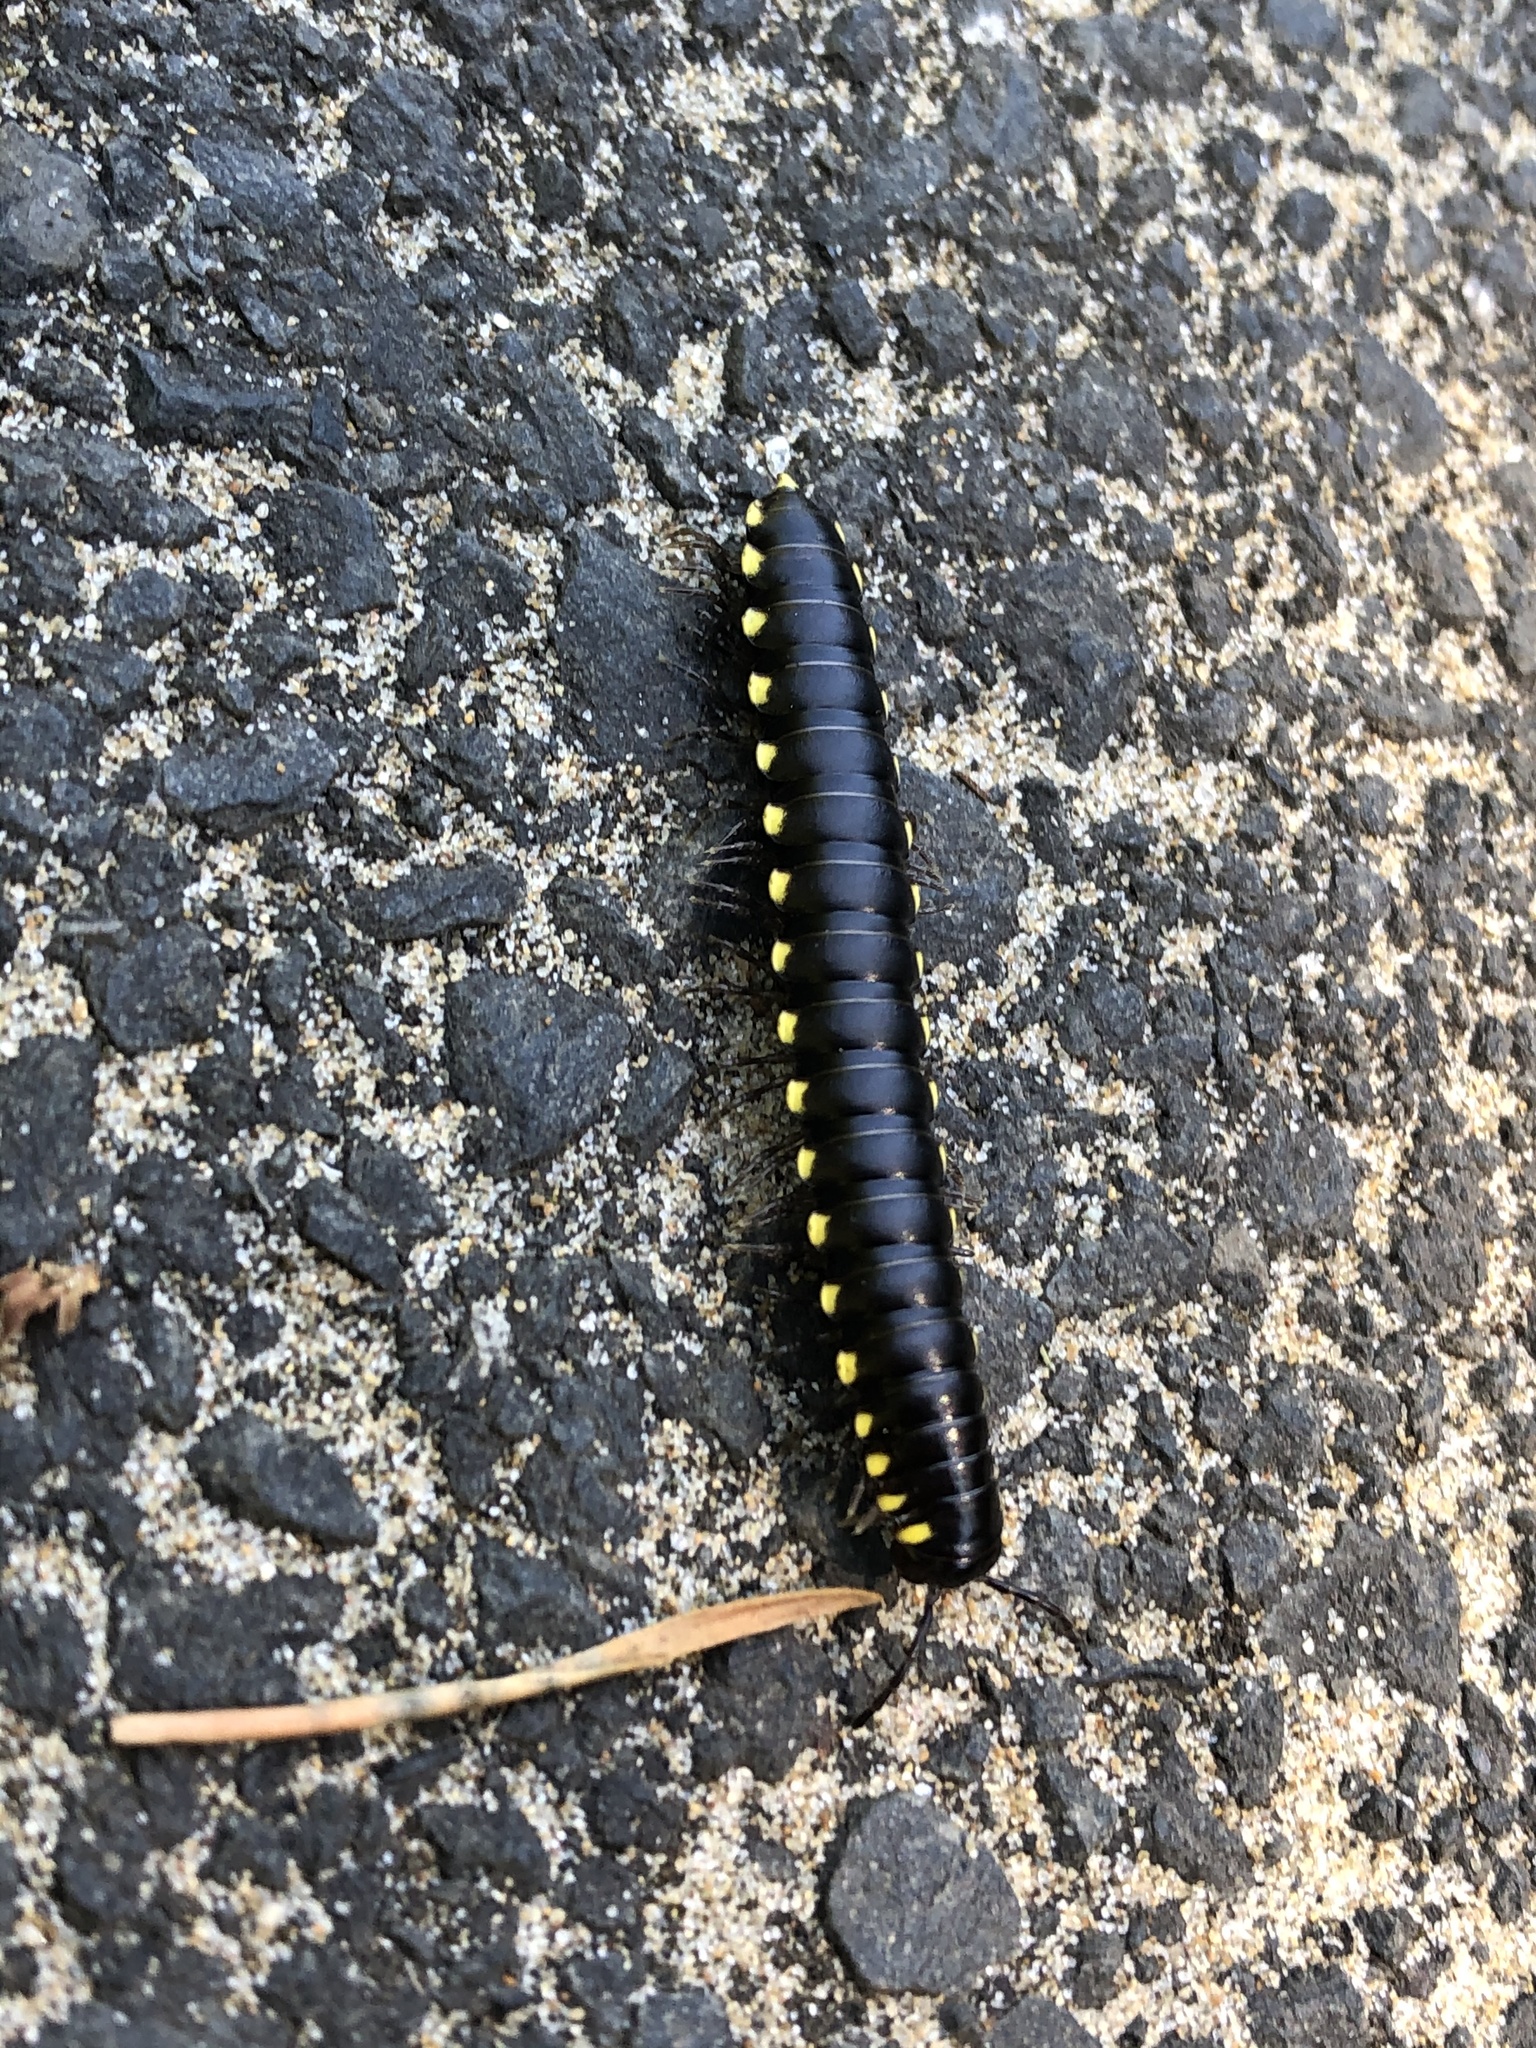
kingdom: Animalia
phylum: Arthropoda
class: Diplopoda
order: Polydesmida
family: Xystodesmidae
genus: Harpaphe
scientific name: Harpaphe haydeniana
